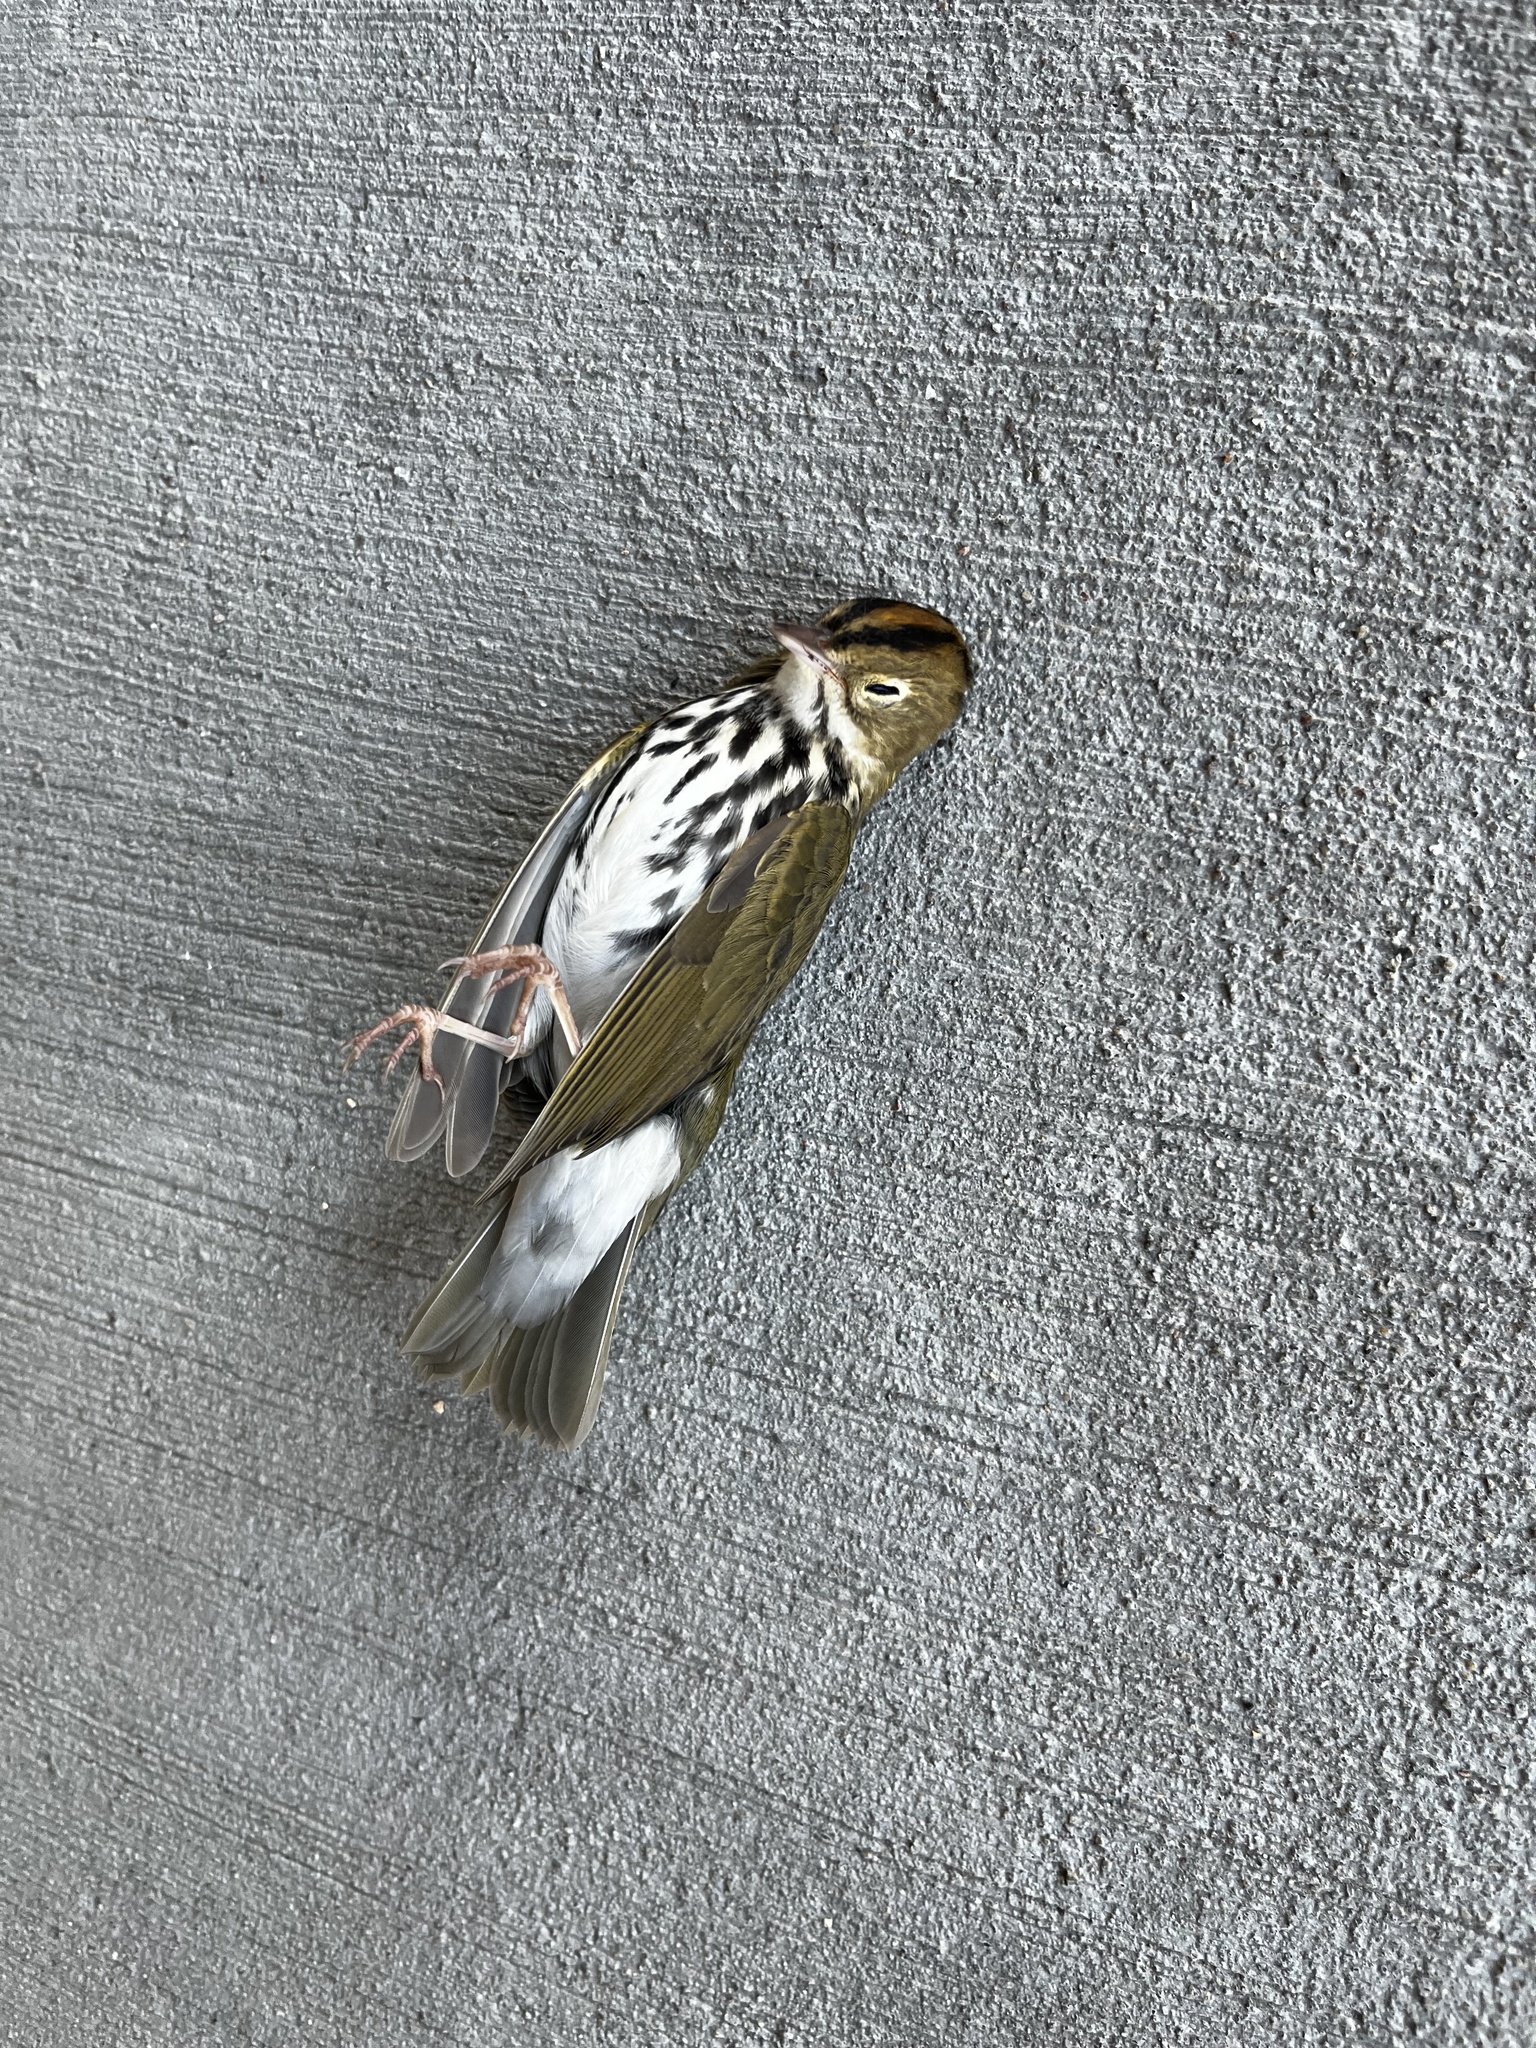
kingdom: Animalia
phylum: Chordata
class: Aves
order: Passeriformes
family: Parulidae
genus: Seiurus
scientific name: Seiurus aurocapilla
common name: Ovenbird
